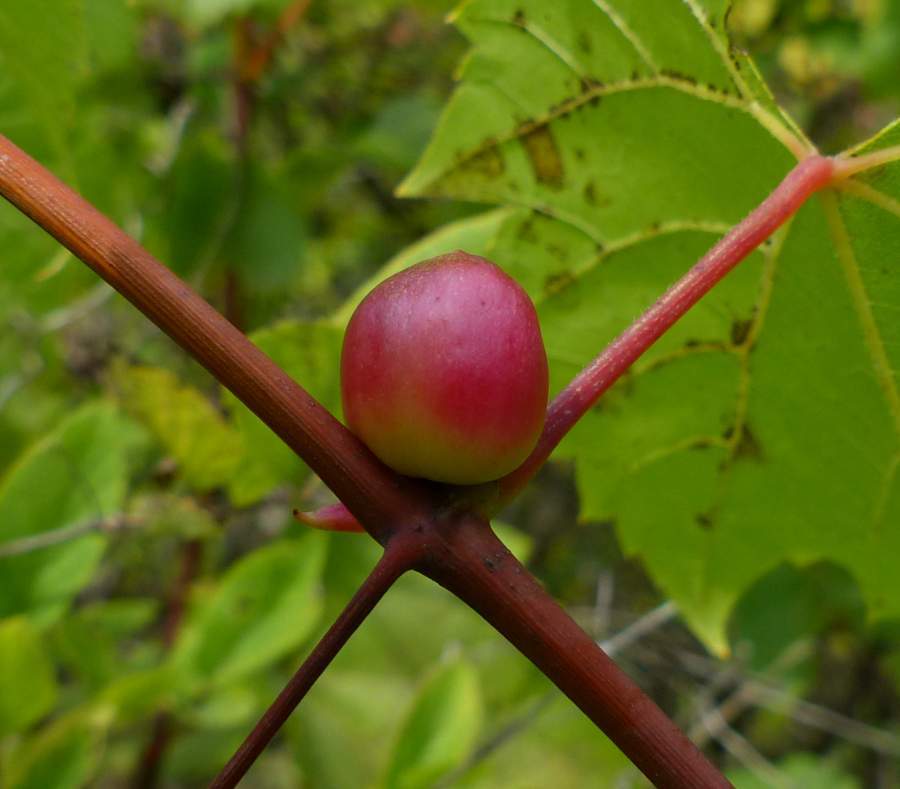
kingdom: Animalia
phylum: Arthropoda
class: Insecta
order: Diptera
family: Cecidomyiidae
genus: Ampelomyia
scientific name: Ampelomyia vitispomum
